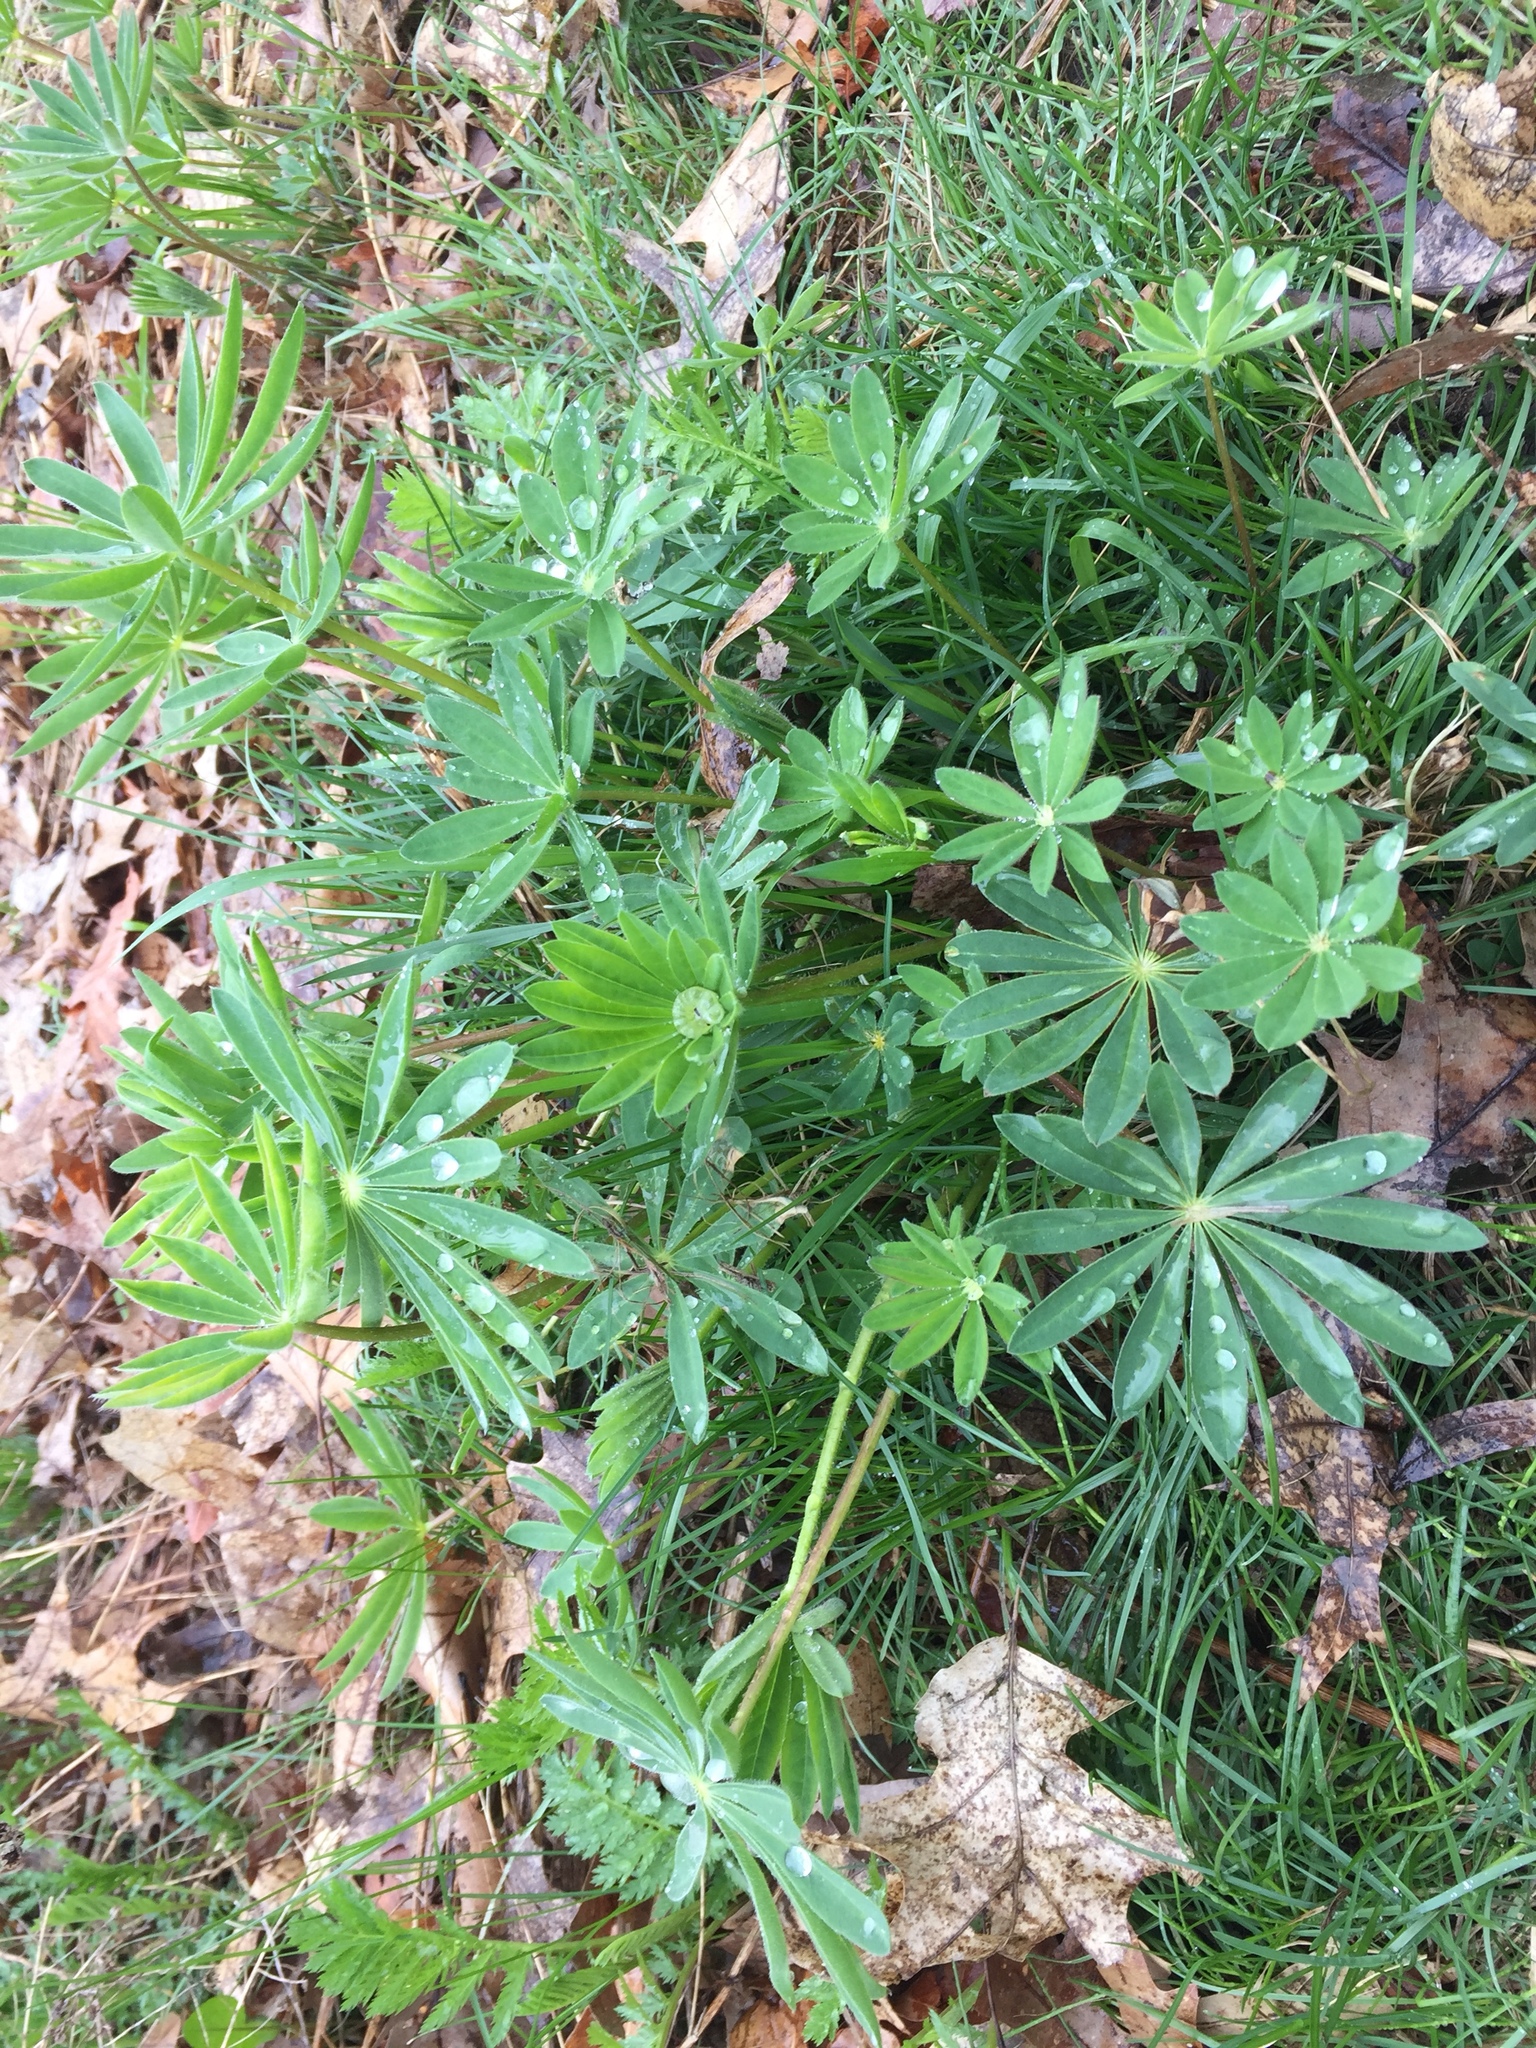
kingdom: Plantae
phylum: Tracheophyta
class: Magnoliopsida
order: Fabales
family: Fabaceae
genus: Lupinus
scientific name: Lupinus polyphyllus
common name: Garden lupin
